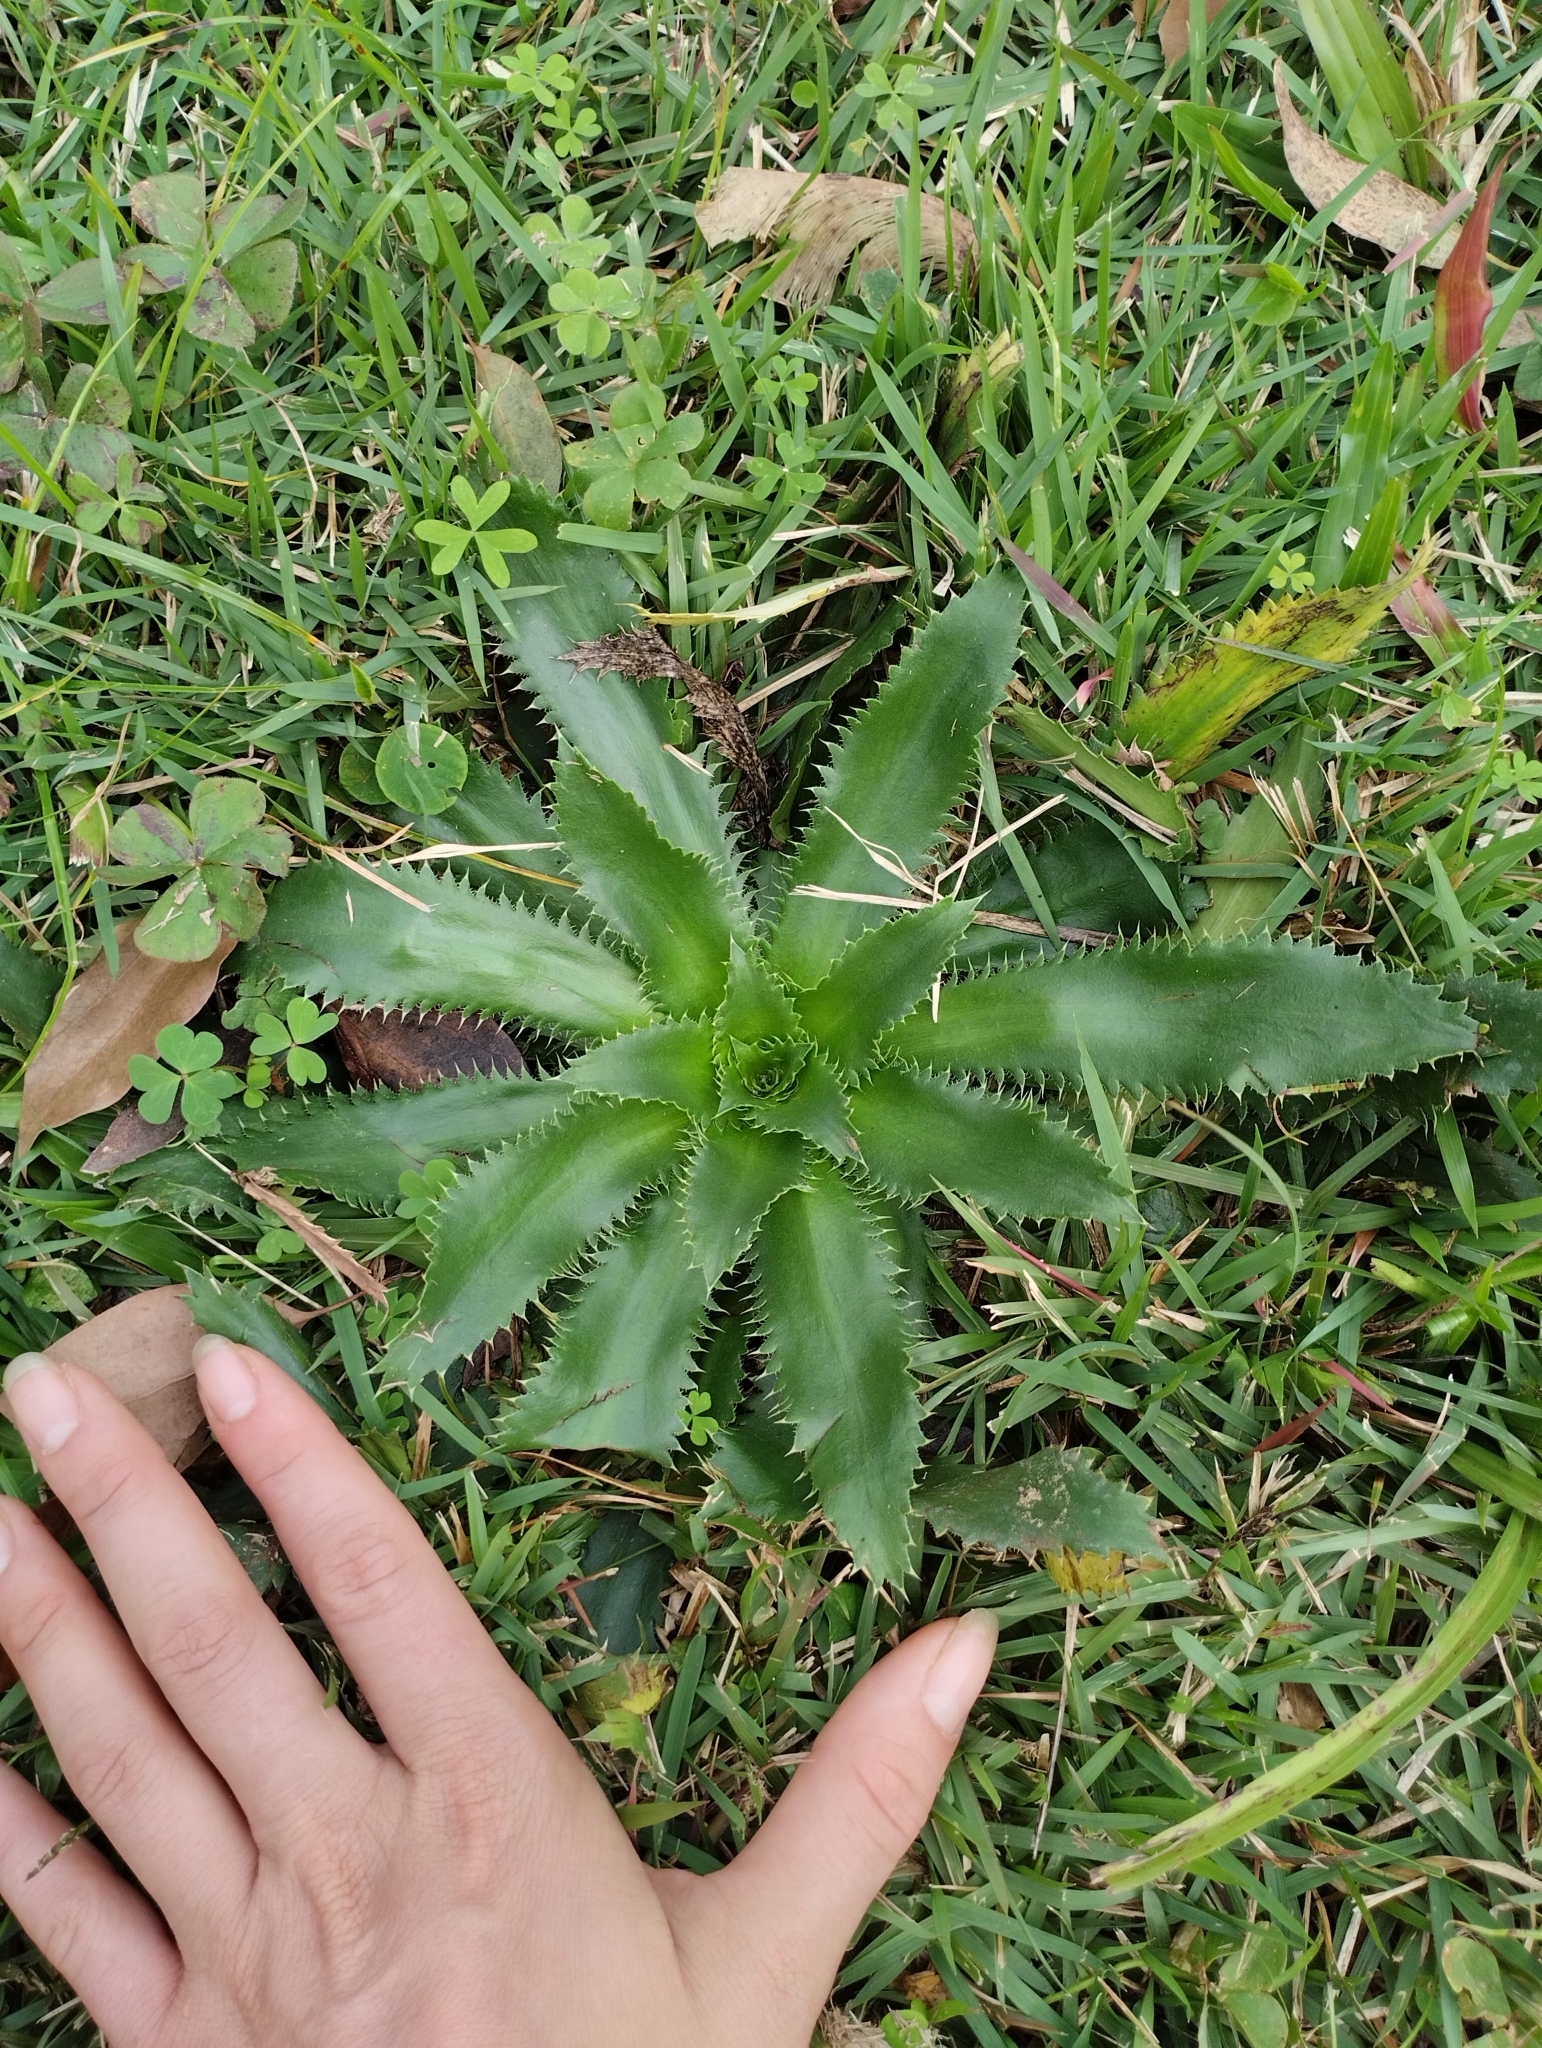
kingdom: Plantae
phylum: Tracheophyta
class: Magnoliopsida
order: Apiales
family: Apiaceae
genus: Eryngium
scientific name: Eryngium elegans
